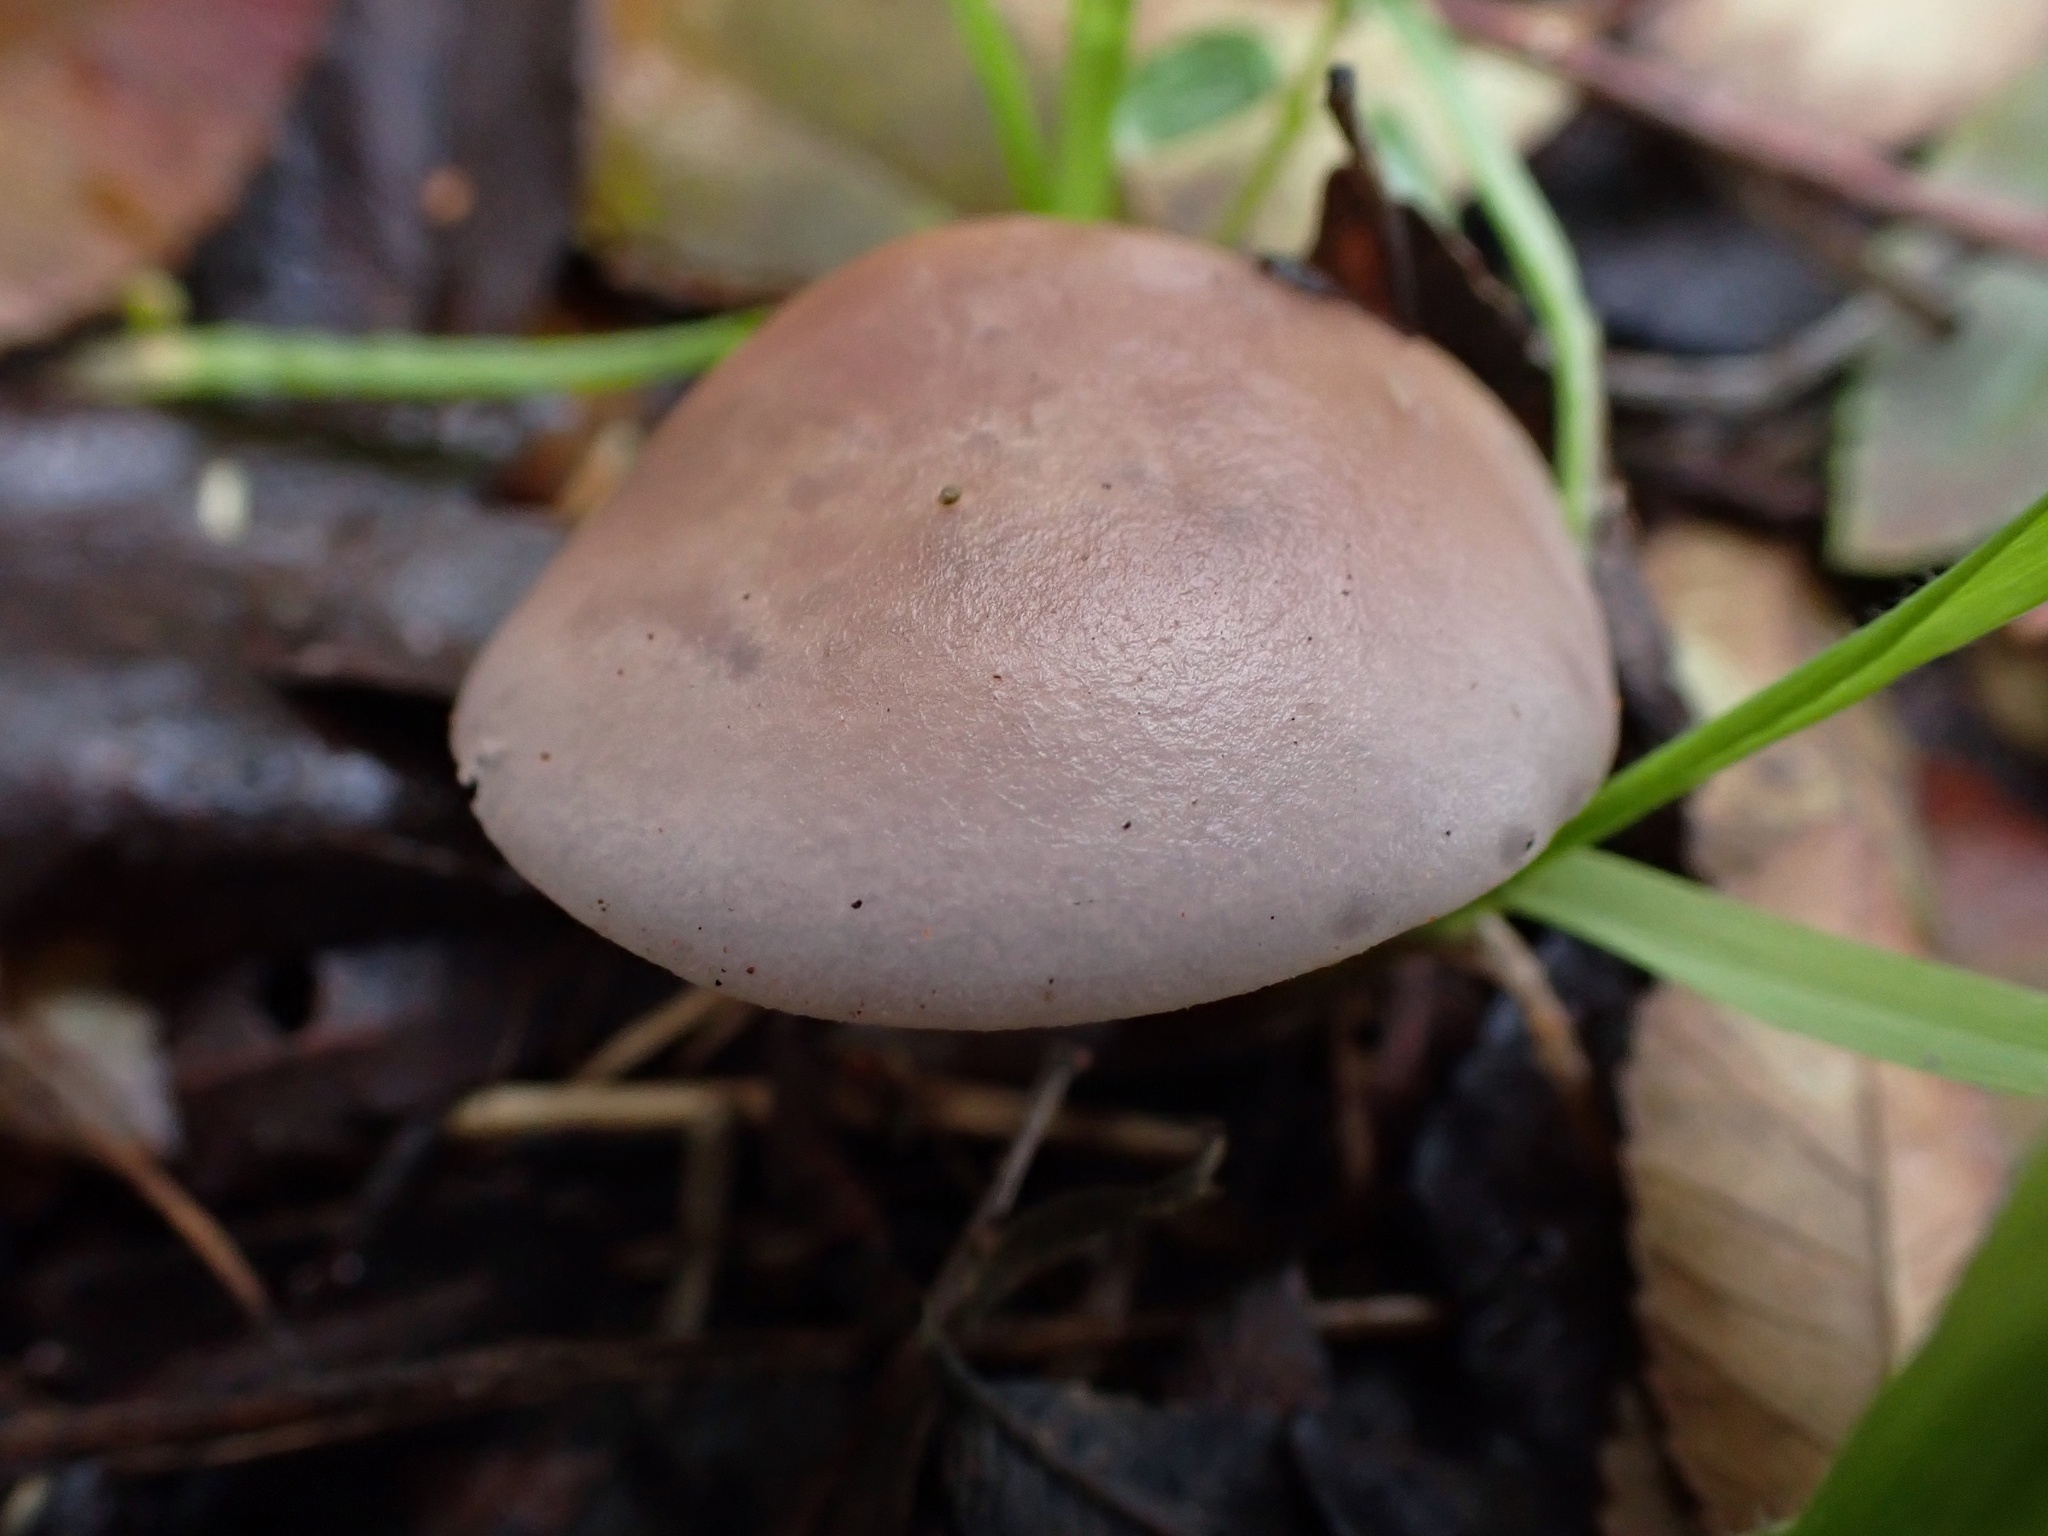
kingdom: Fungi
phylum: Basidiomycota
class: Agaricomycetes
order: Agaricales
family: Tricholomataceae
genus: Collybia
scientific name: Collybia
